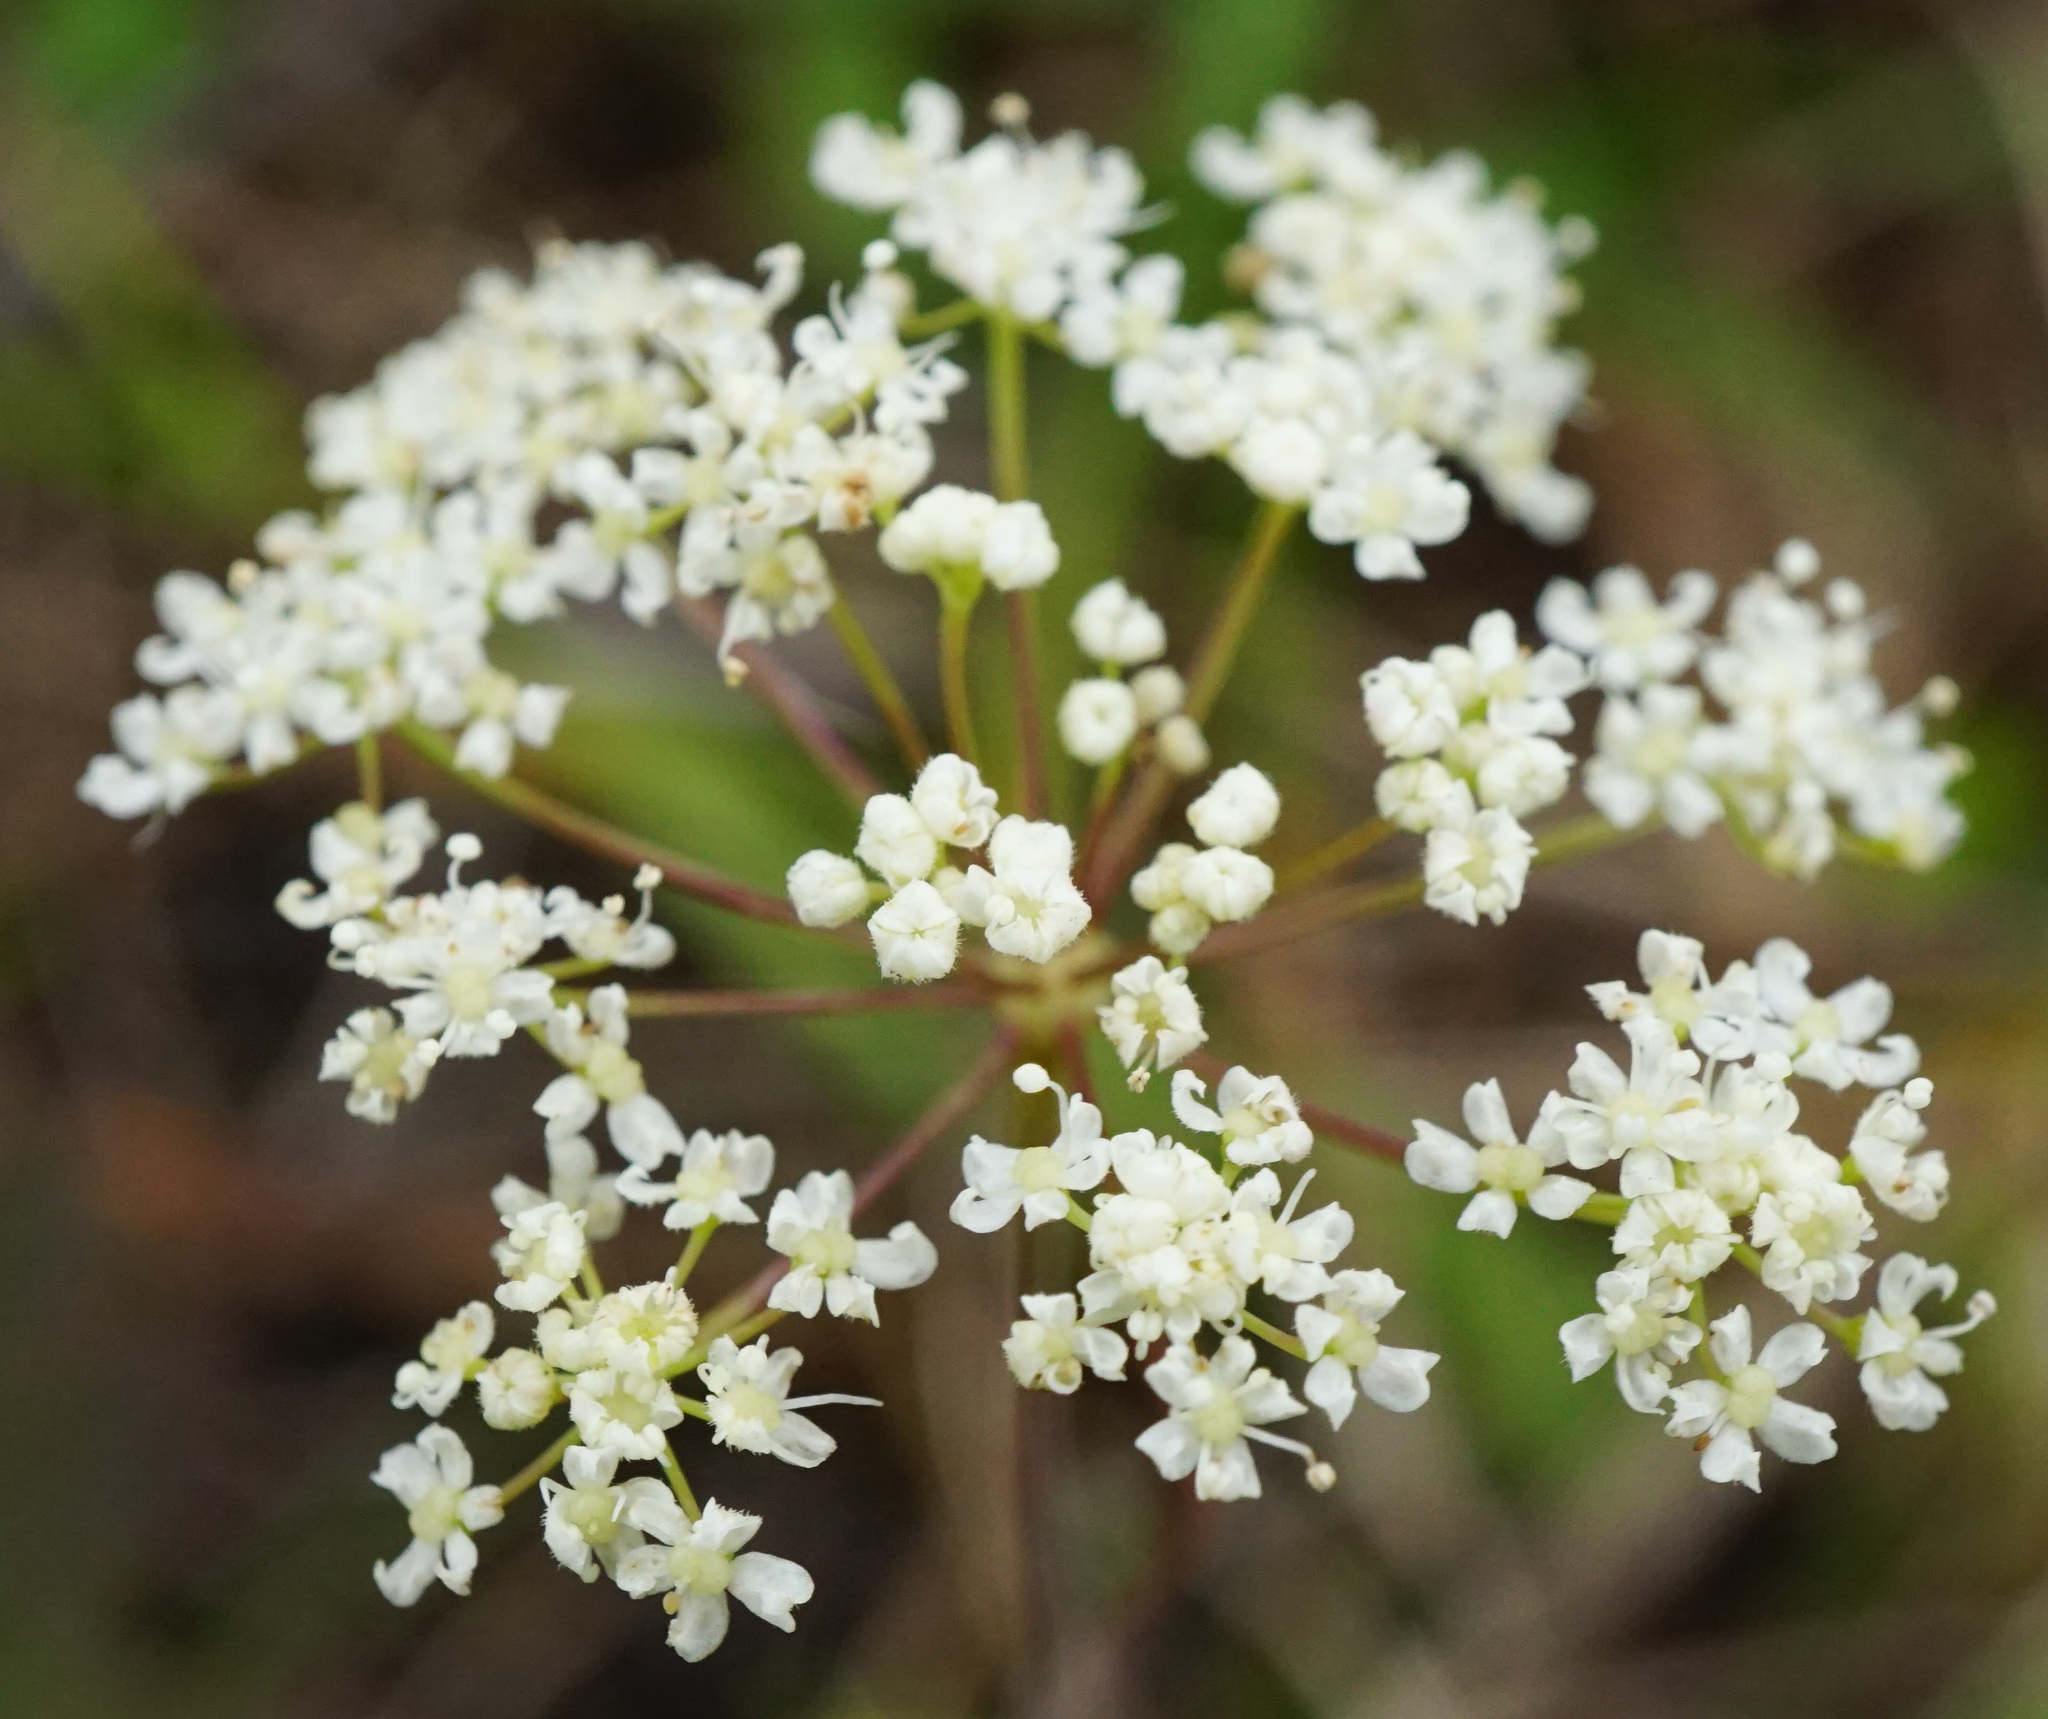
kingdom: Plantae
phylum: Tracheophyta
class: Magnoliopsida
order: Apiales
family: Apiaceae
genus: Pimpinella
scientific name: Pimpinella saxifraga
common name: Burnet-saxifrage
